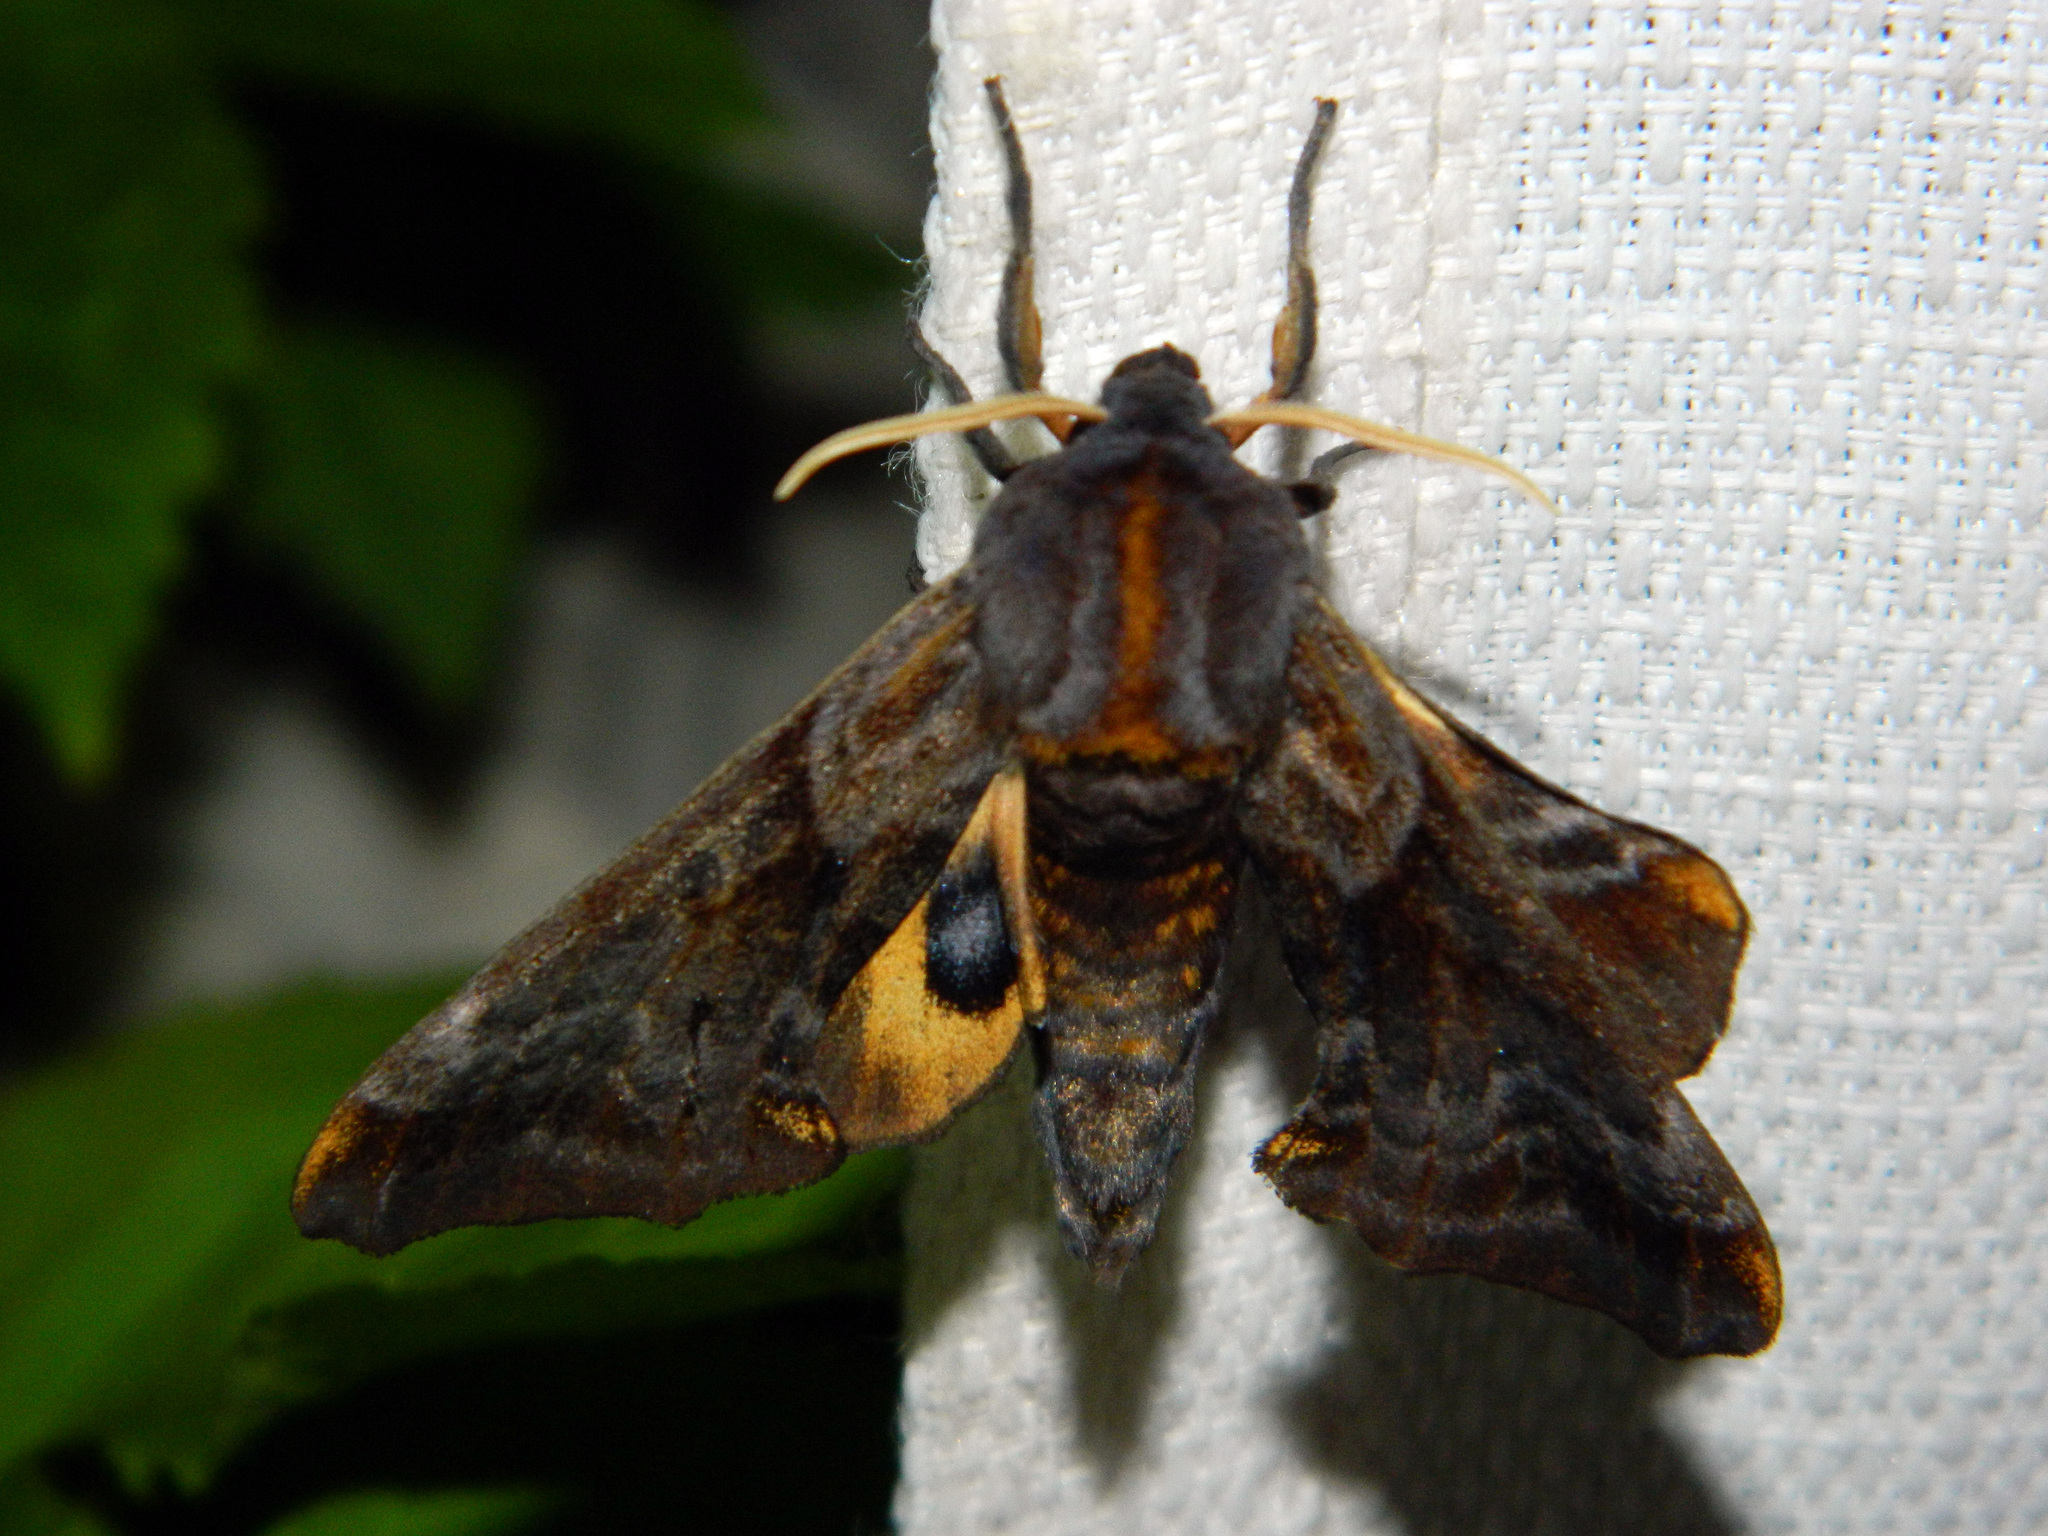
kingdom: Animalia
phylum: Arthropoda
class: Insecta
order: Lepidoptera
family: Sphingidae
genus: Paonias
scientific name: Paonias myops
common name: Small-eyed sphinx
